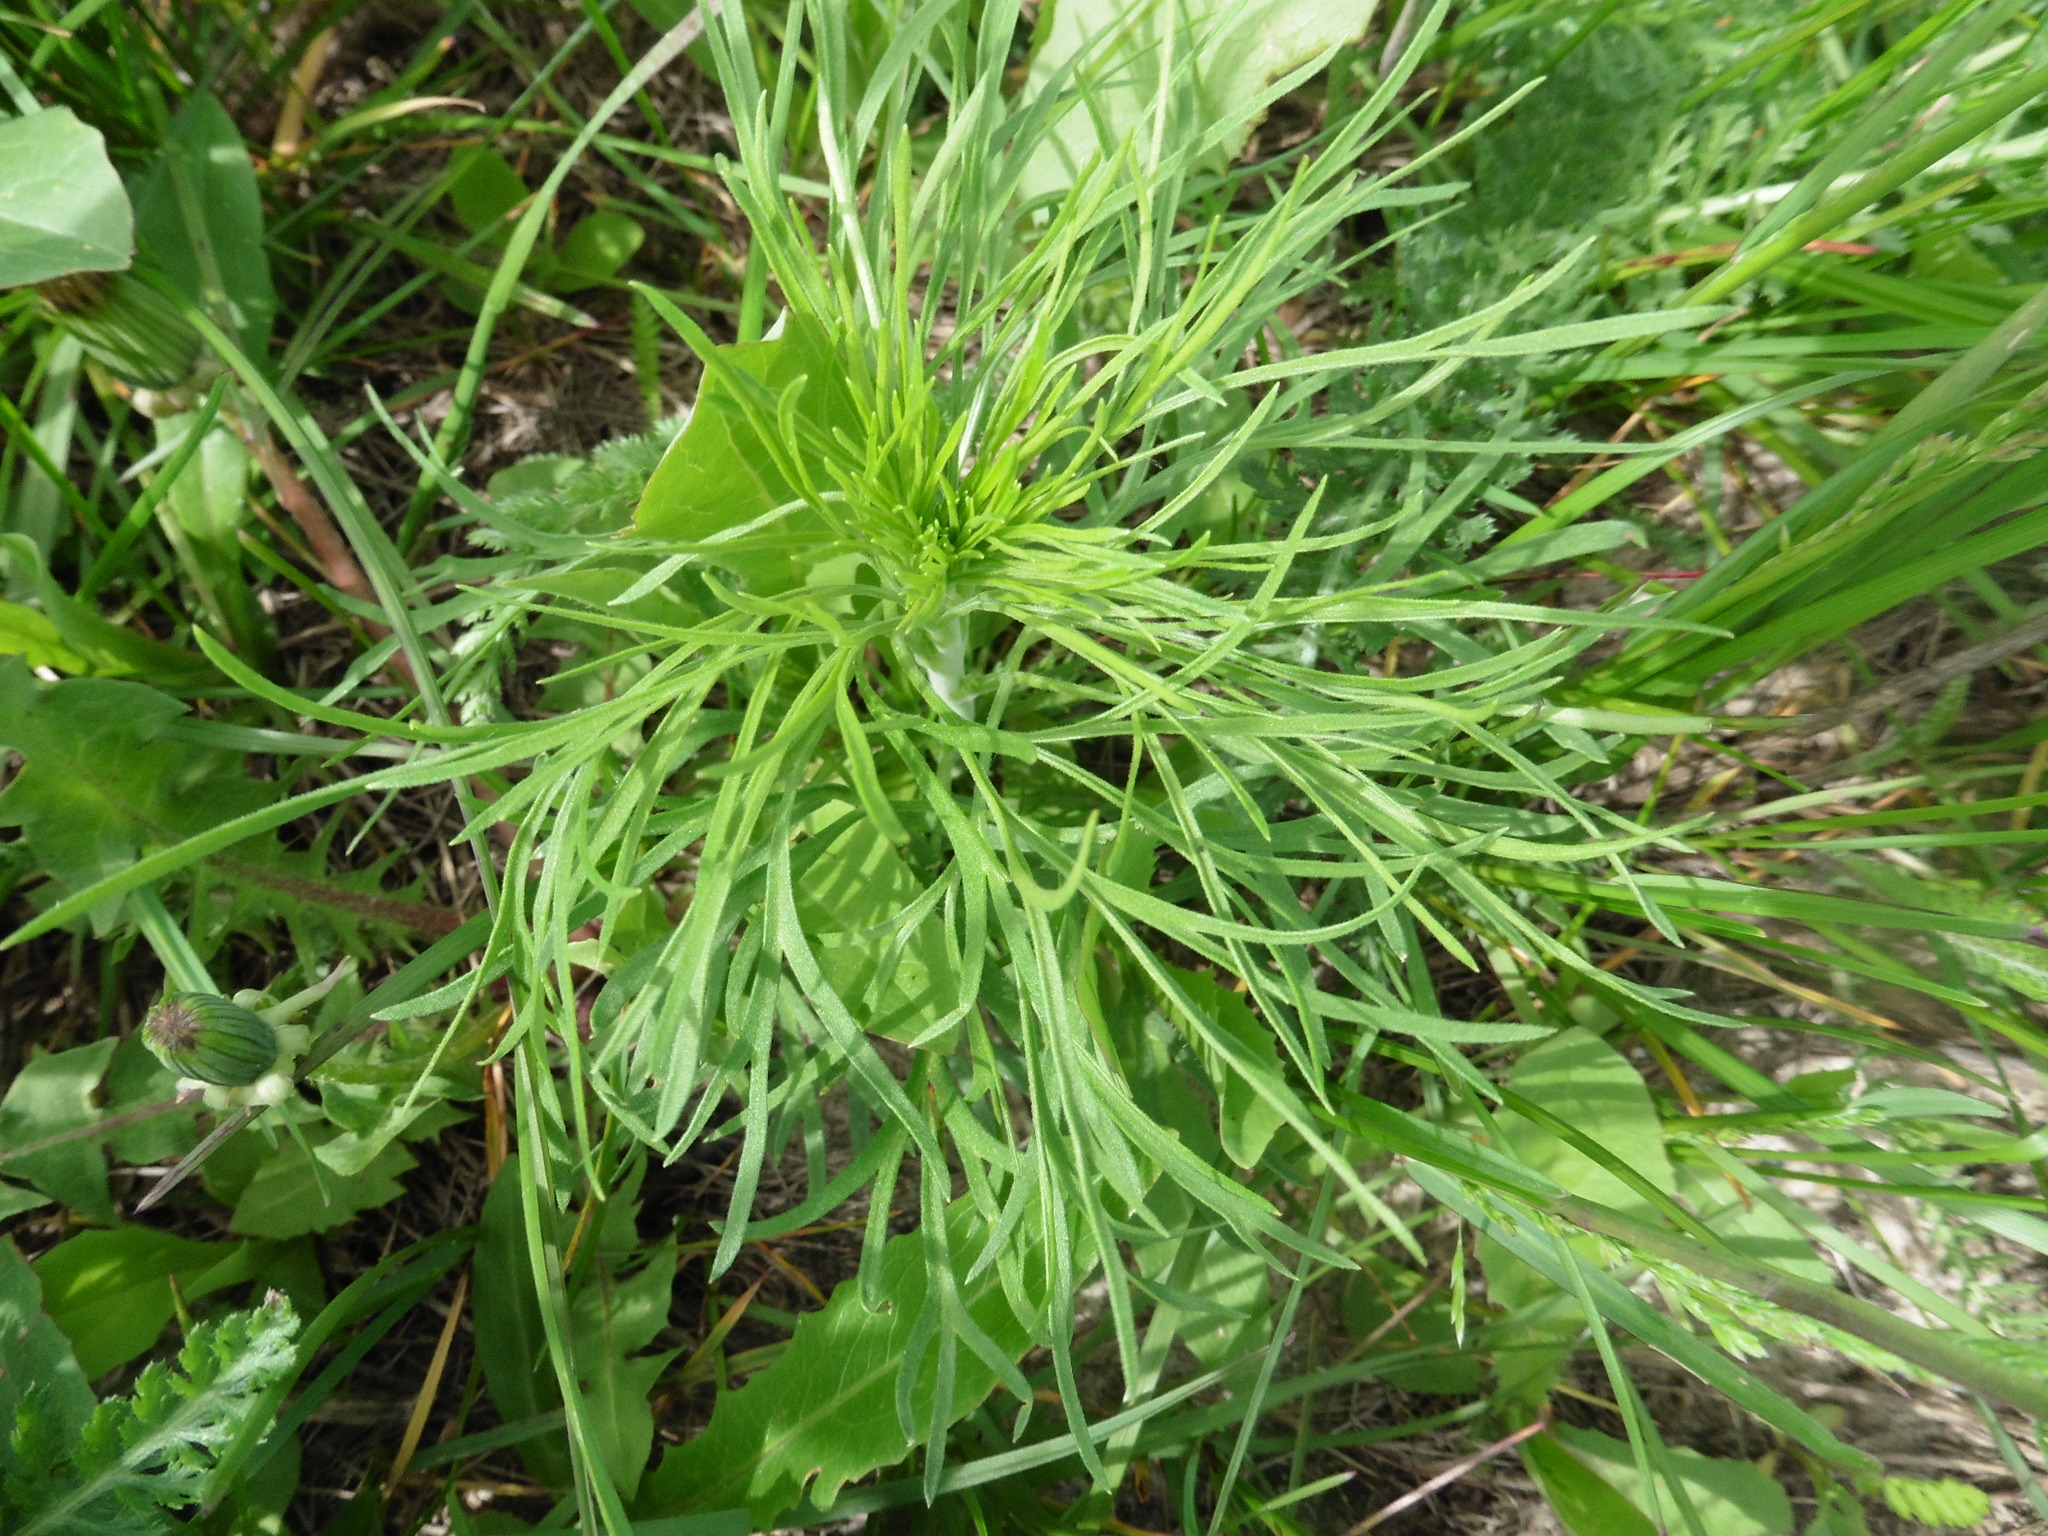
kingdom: Plantae
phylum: Tracheophyta
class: Magnoliopsida
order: Ranunculales
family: Ranunculaceae
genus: Delphinium
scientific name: Delphinium consolida
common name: Branching larkspur
